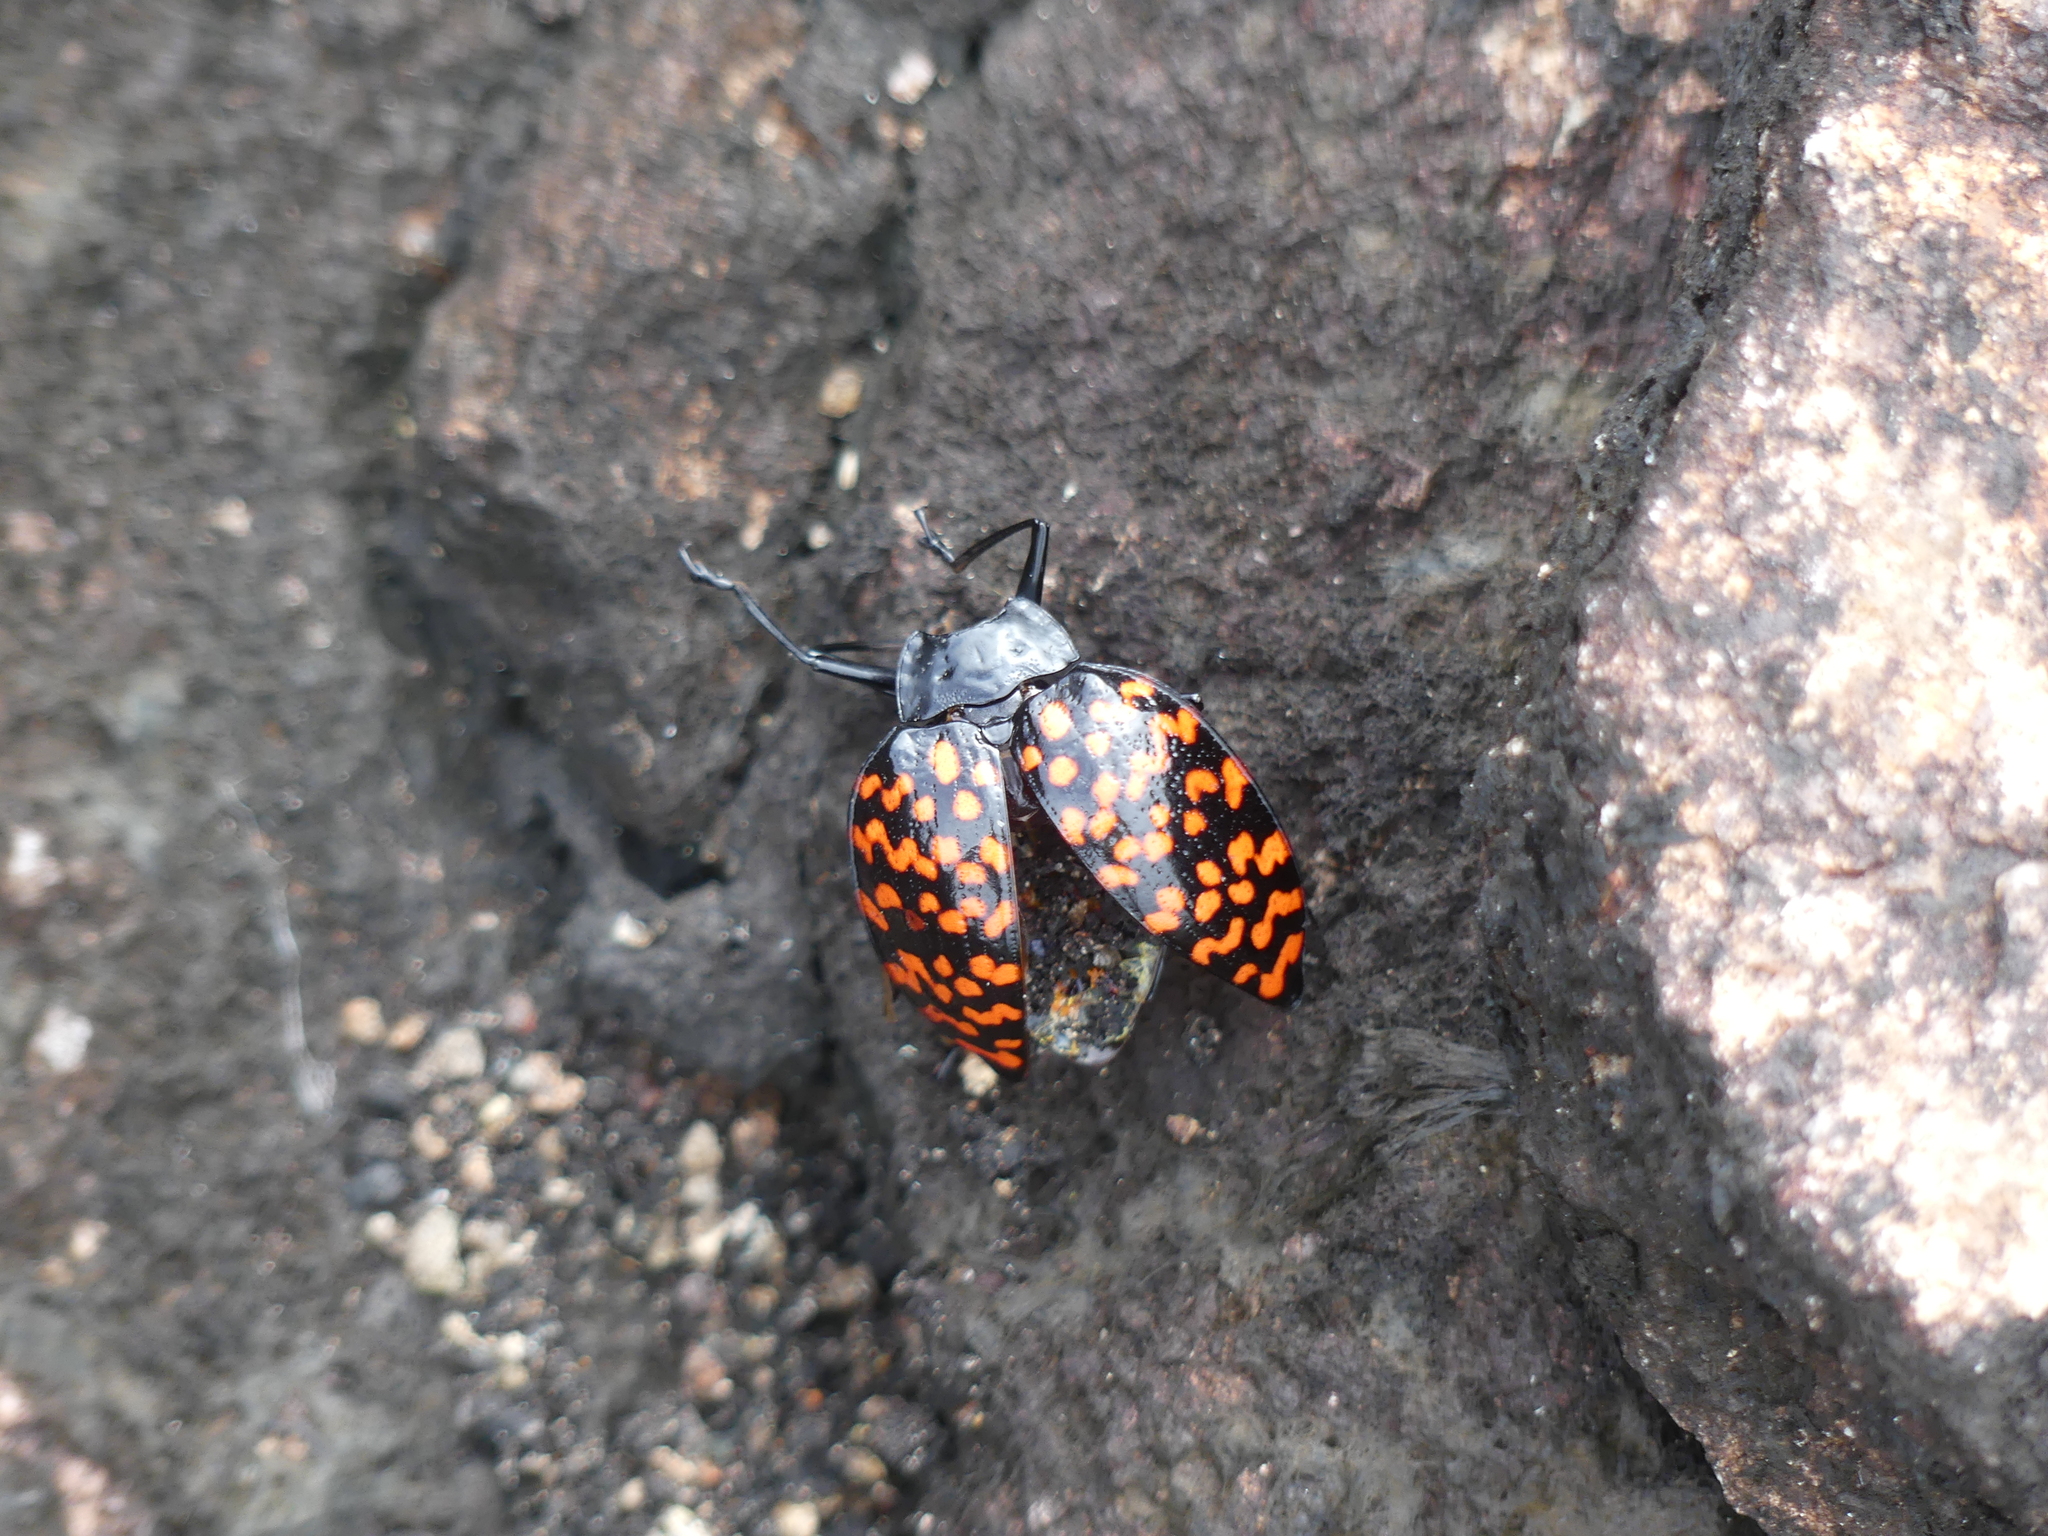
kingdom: Animalia
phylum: Arthropoda
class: Insecta
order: Coleoptera
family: Erotylidae
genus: Erotylus
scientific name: Erotylus giganteus
